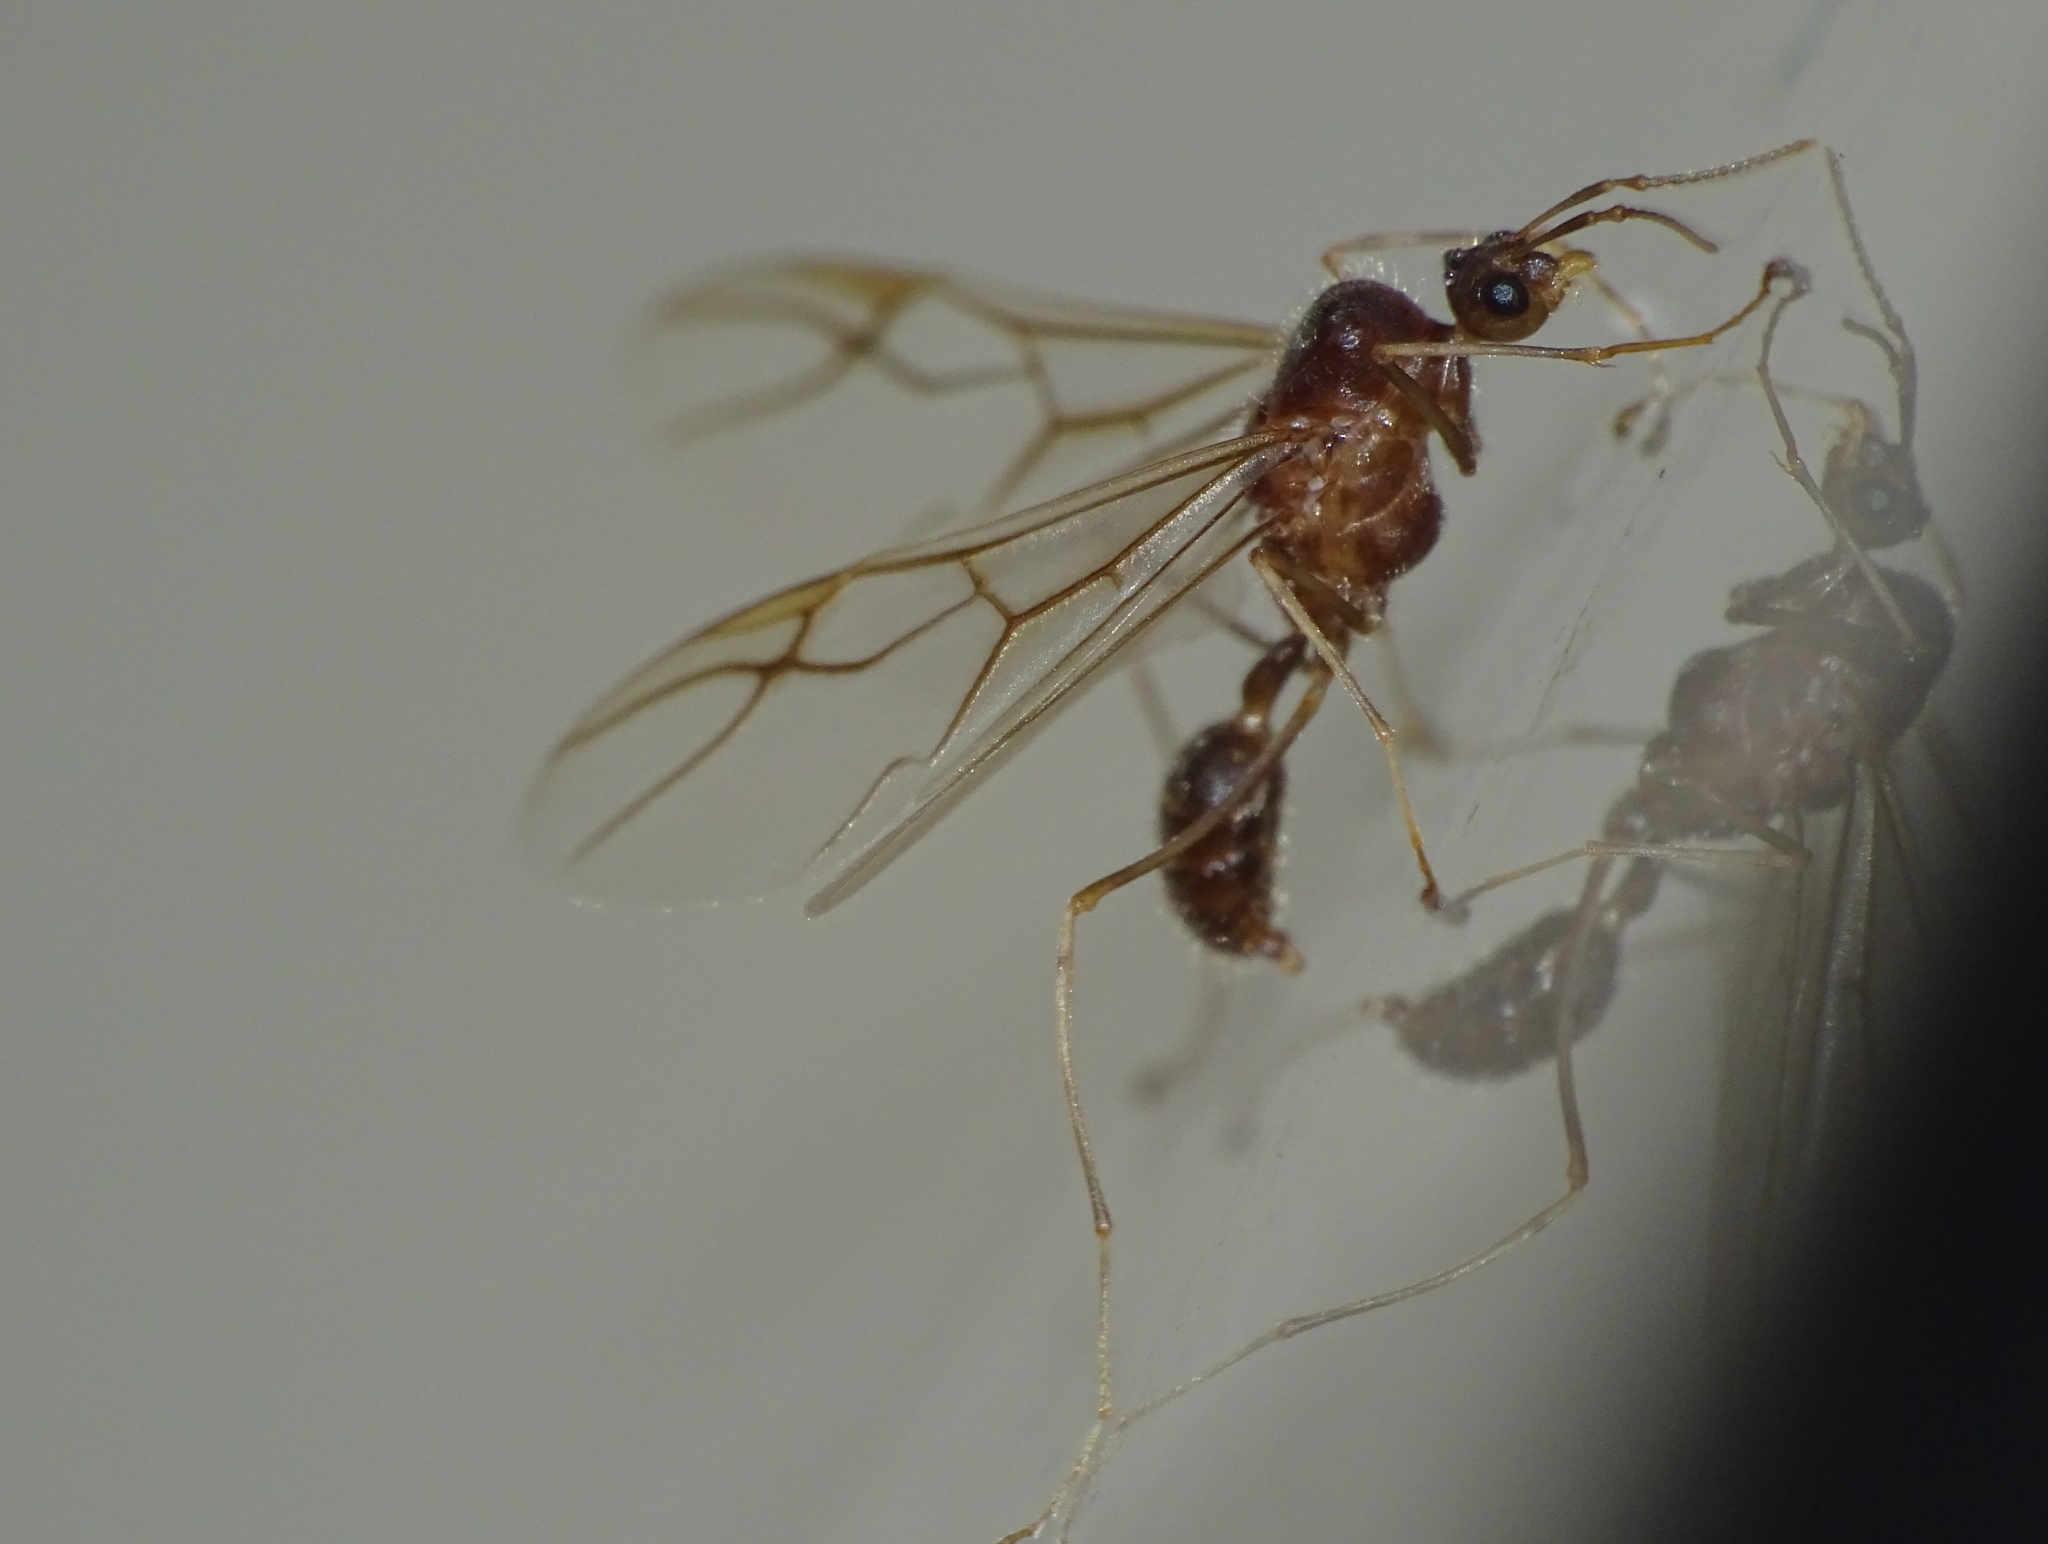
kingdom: Animalia
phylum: Arthropoda
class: Insecta
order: Hymenoptera
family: Formicidae
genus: Oecophylla
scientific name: Oecophylla smaragdina
